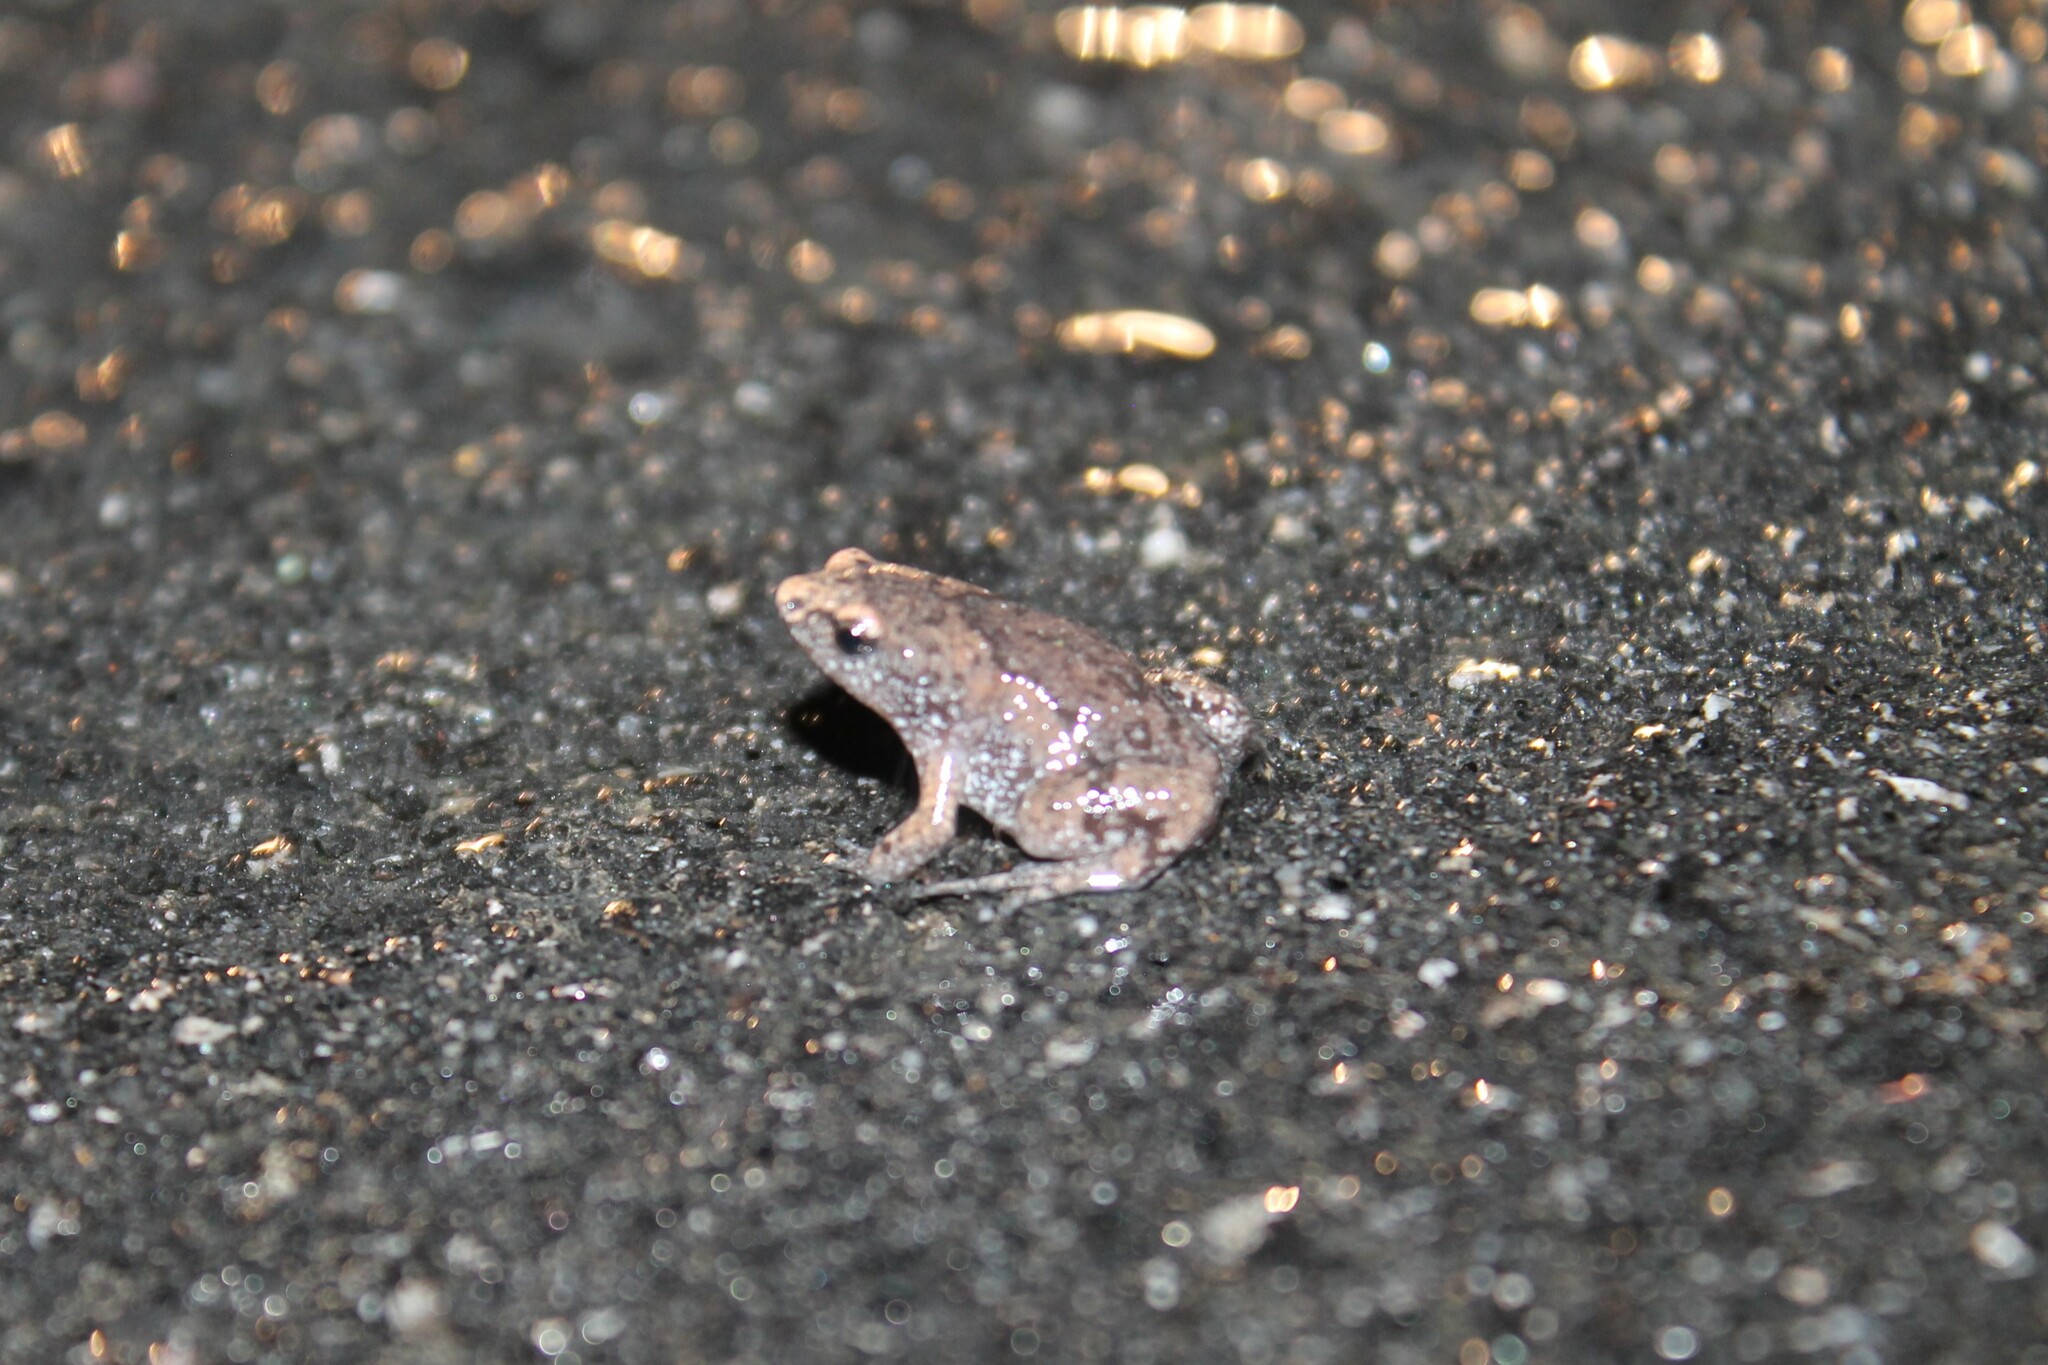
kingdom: Animalia
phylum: Chordata
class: Amphibia
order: Anura
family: Microhylidae
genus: Gastrophryne
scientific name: Gastrophryne carolinensis
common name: Eastern narrowmouth toad
